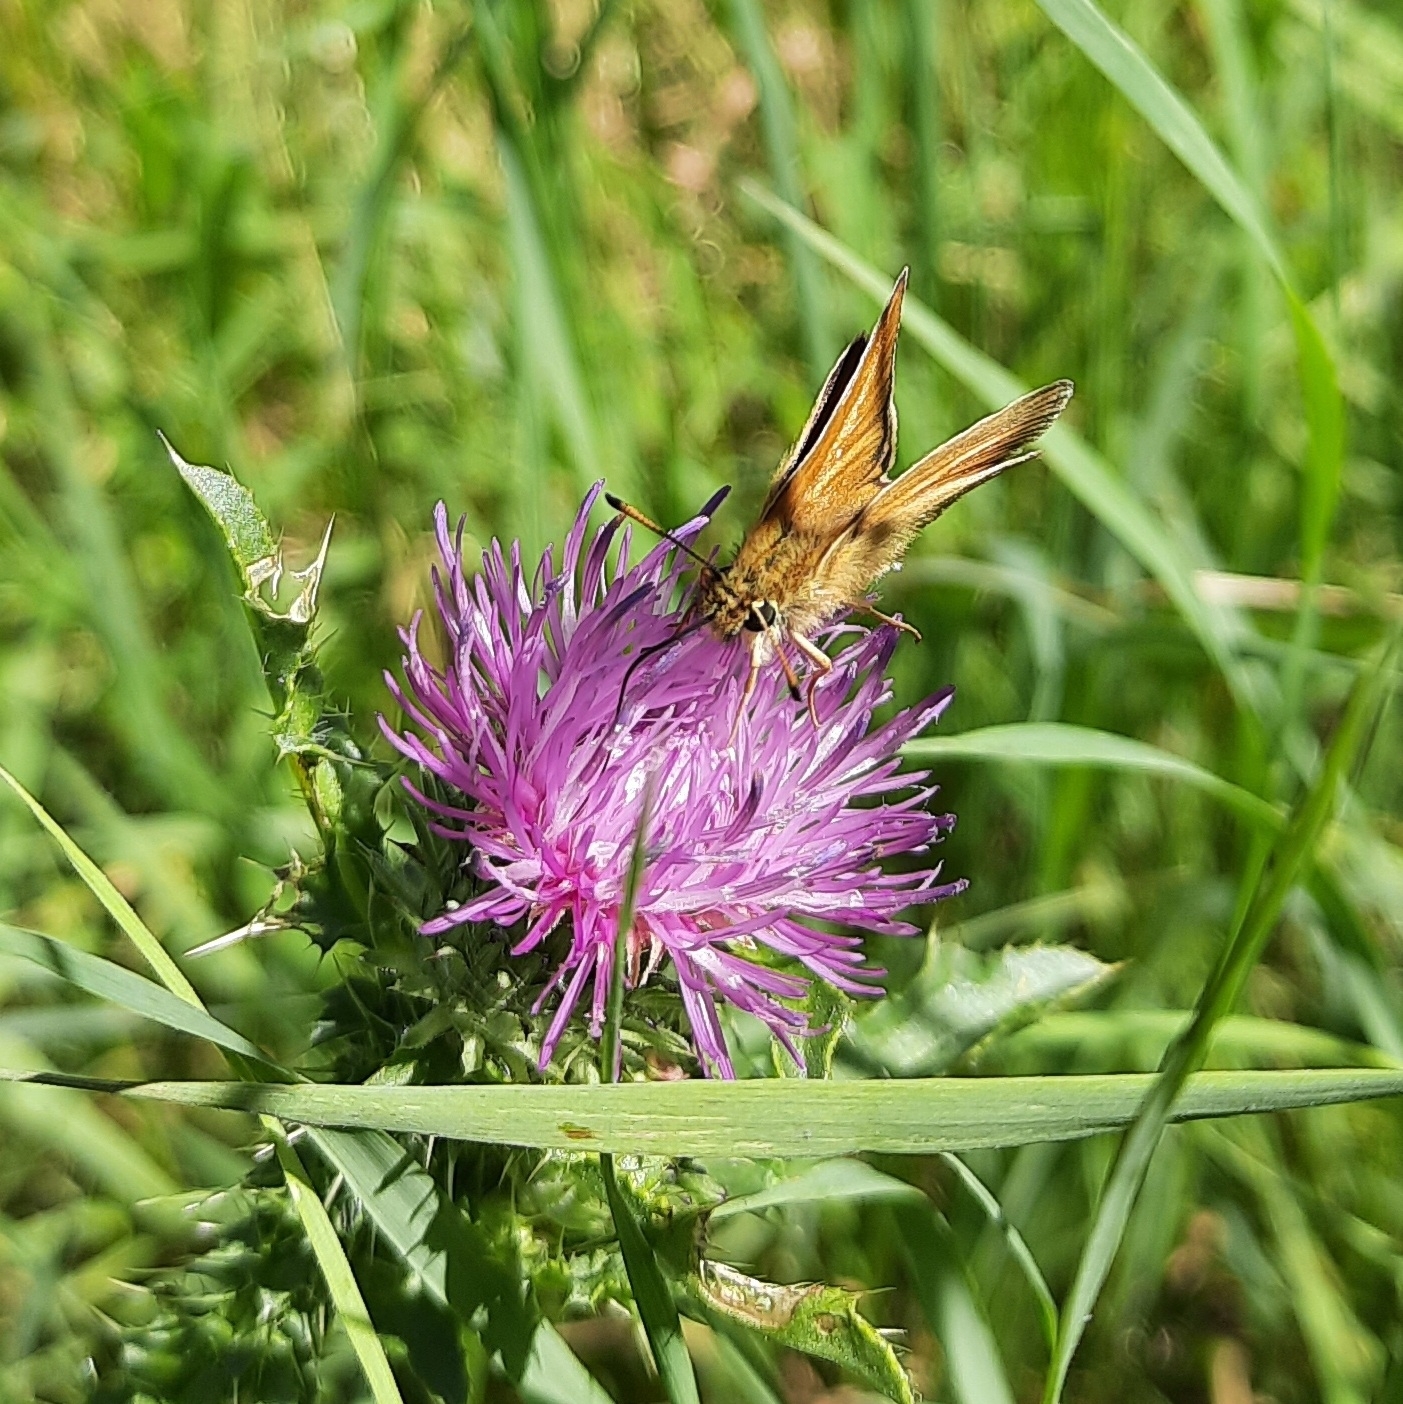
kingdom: Animalia
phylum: Arthropoda
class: Insecta
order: Lepidoptera
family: Hesperiidae
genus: Thymelicus
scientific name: Thymelicus lineola
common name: Essex skipper
